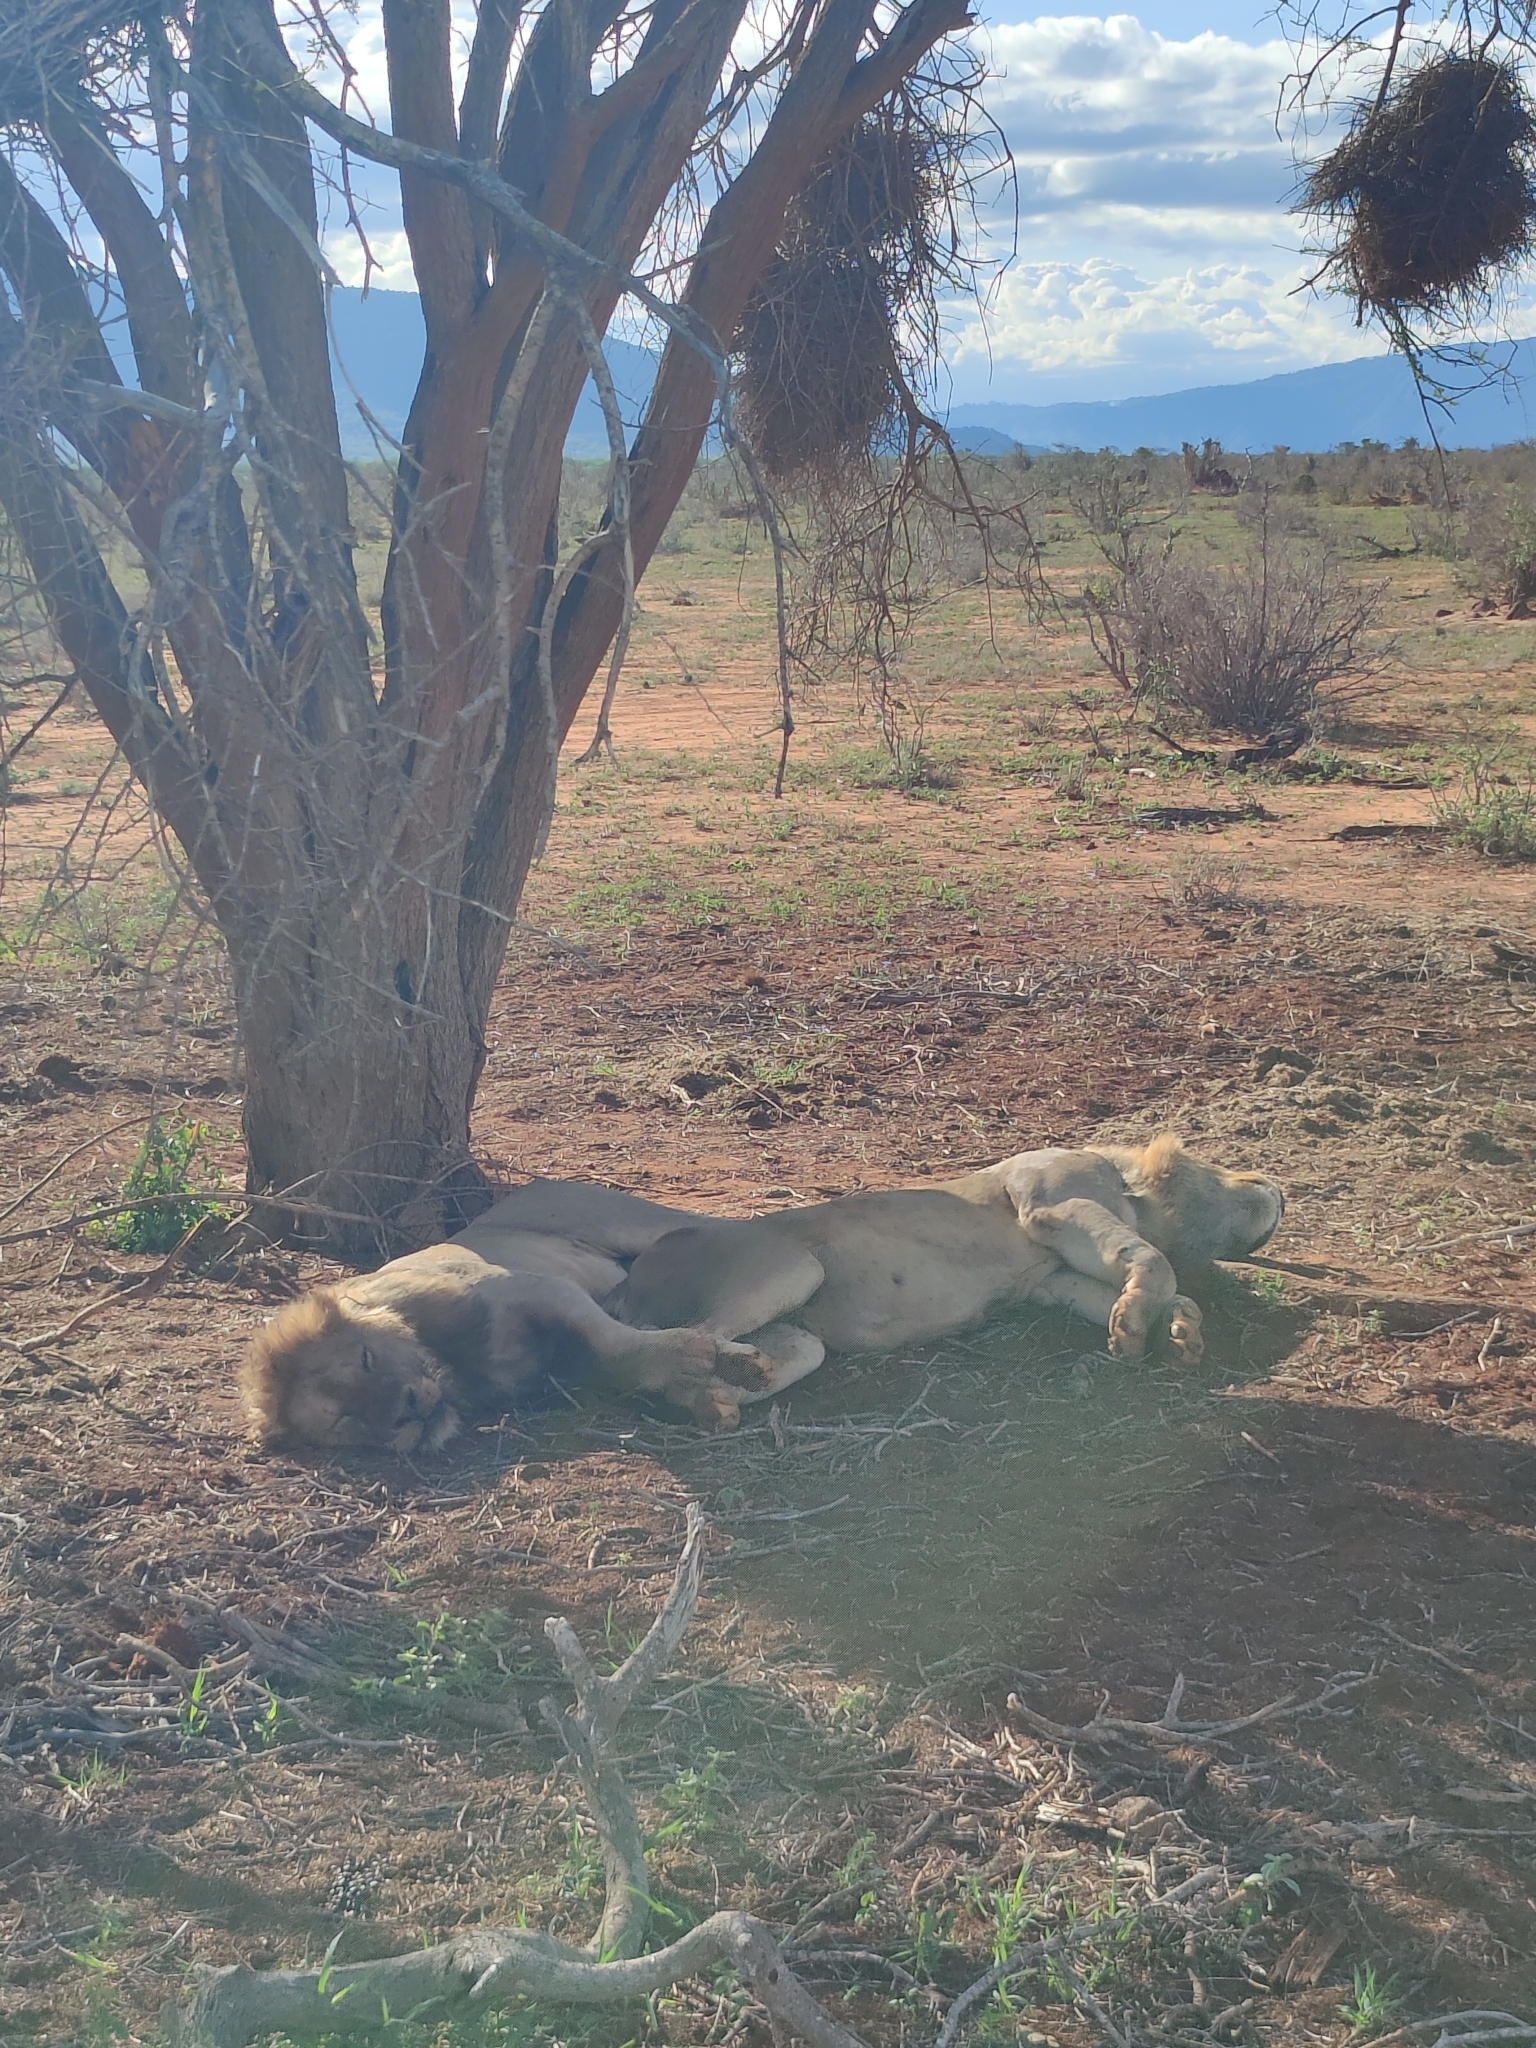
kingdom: Animalia
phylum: Chordata
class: Mammalia
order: Carnivora
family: Felidae
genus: Panthera
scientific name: Panthera leo
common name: Lion
